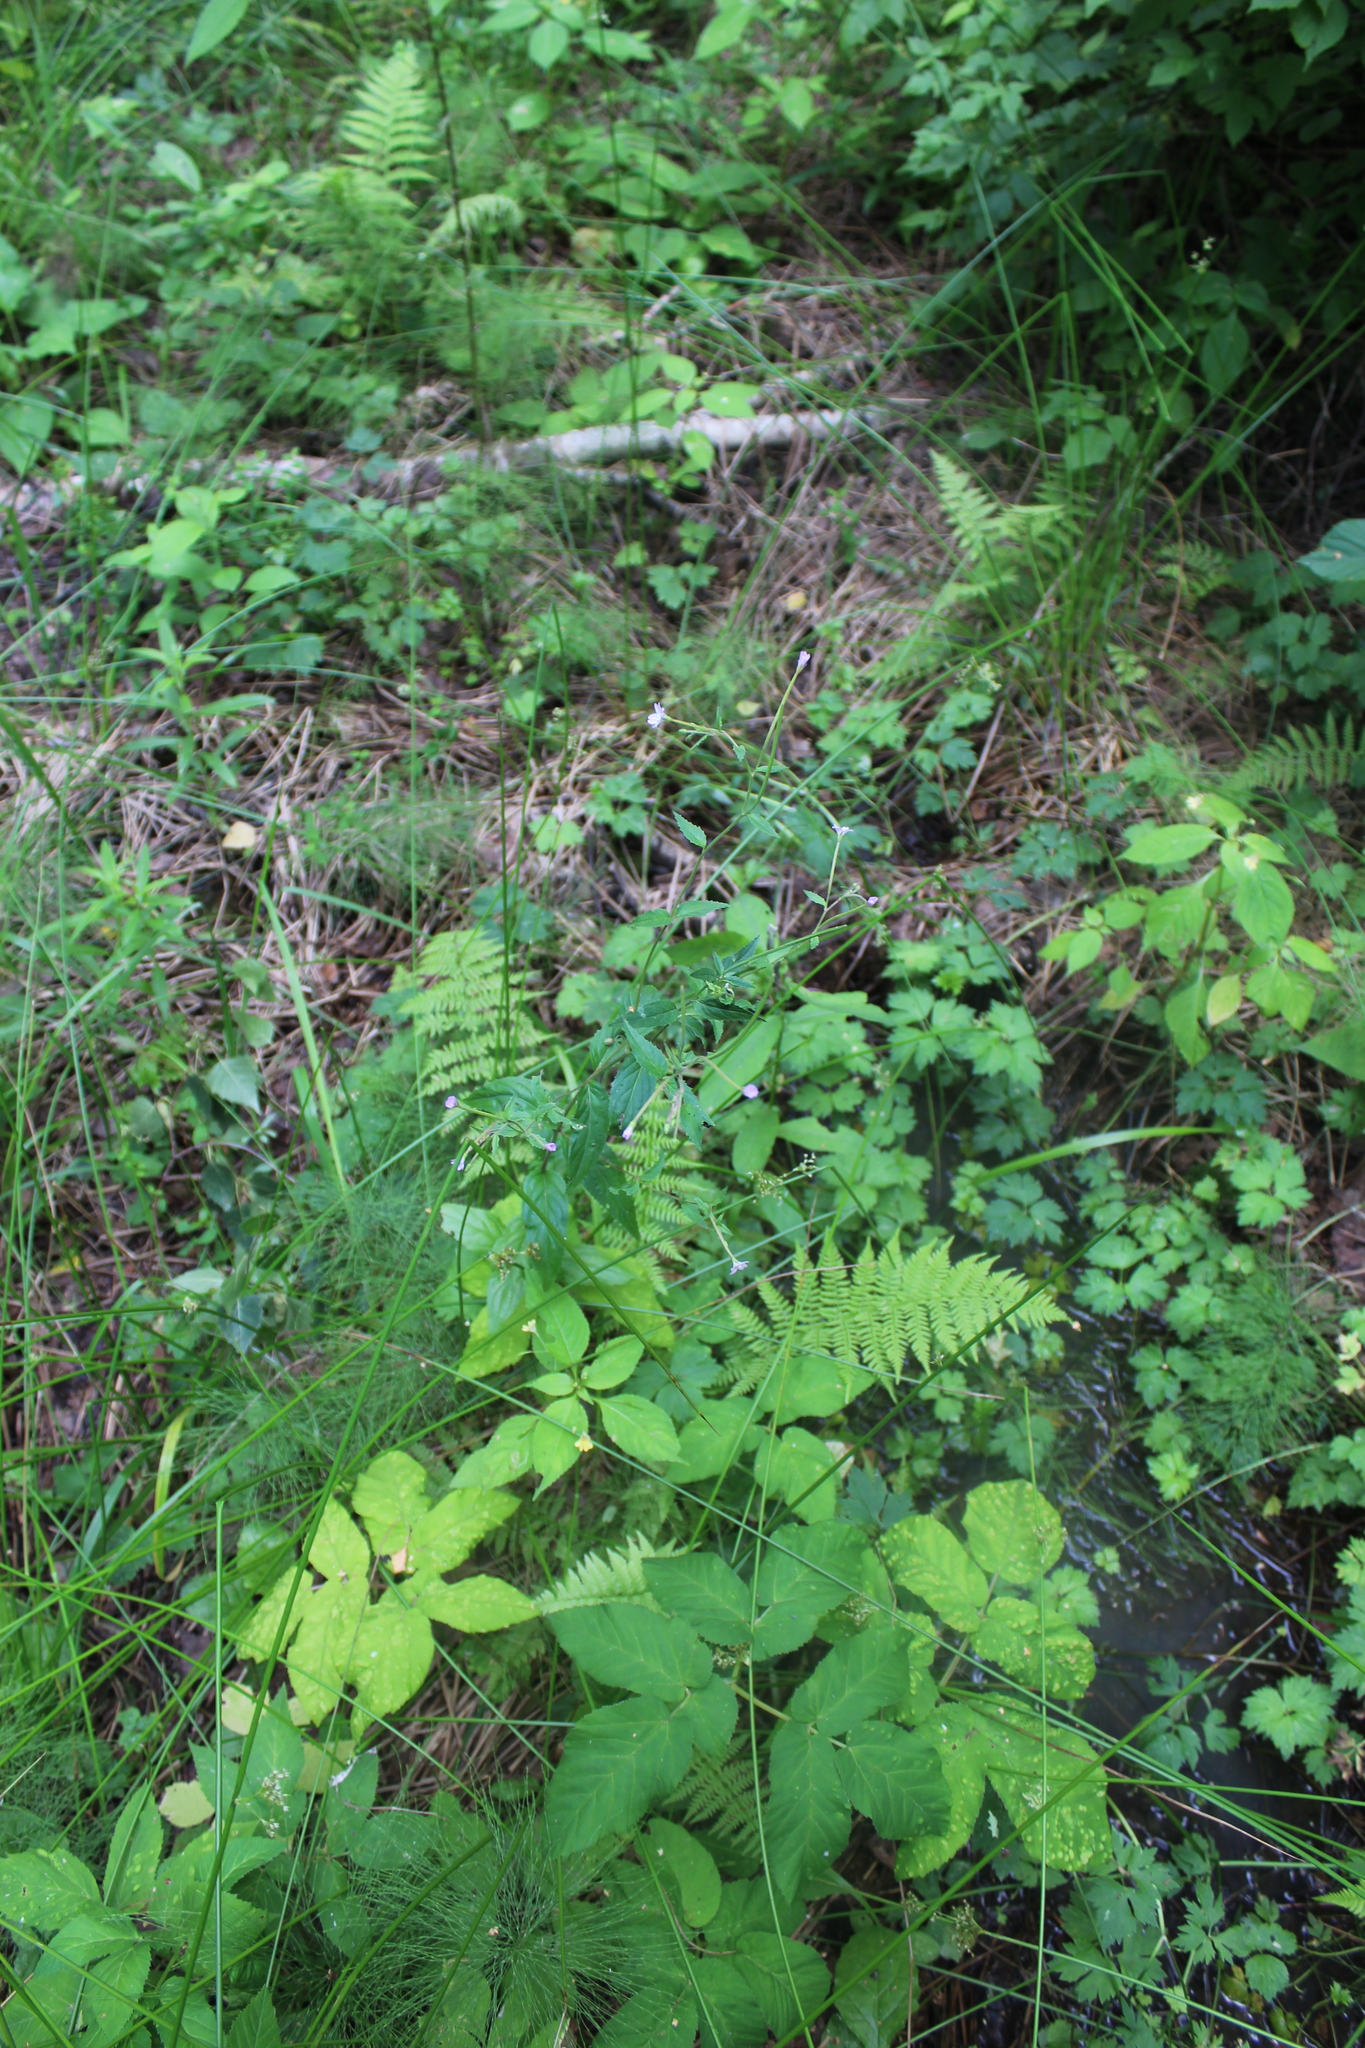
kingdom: Plantae
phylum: Tracheophyta
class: Magnoliopsida
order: Myrtales
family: Onagraceae
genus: Epilobium
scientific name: Epilobium montanum
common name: Broad-leaved willowherb
